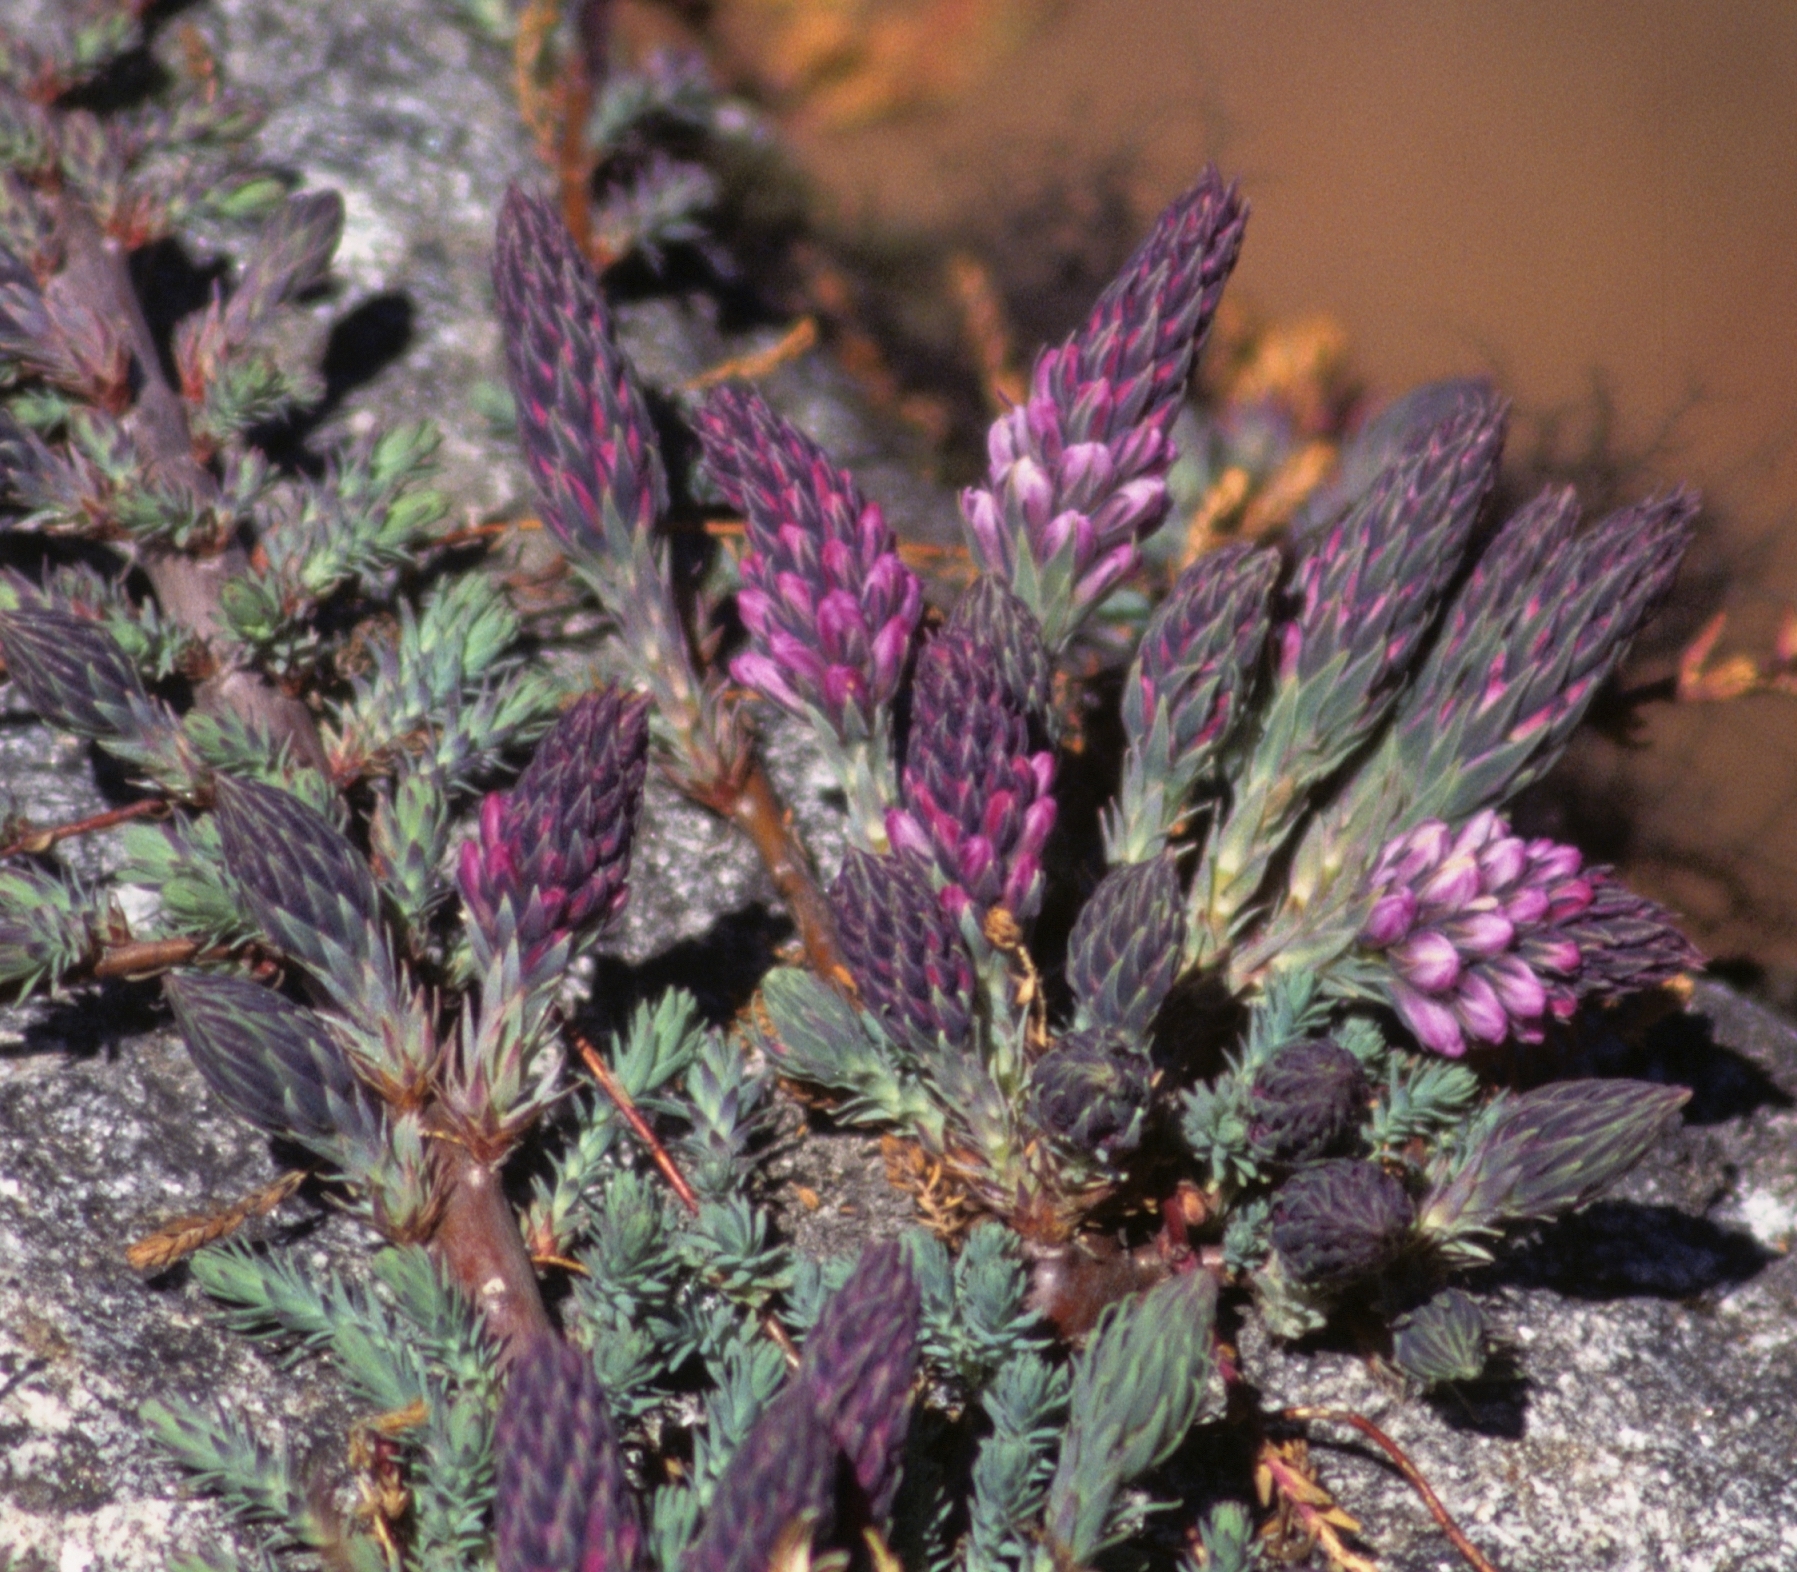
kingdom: Plantae
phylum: Tracheophyta
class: Magnoliopsida
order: Caryophyllales
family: Tamaricaceae
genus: Myricaria
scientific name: Myricaria rosea
